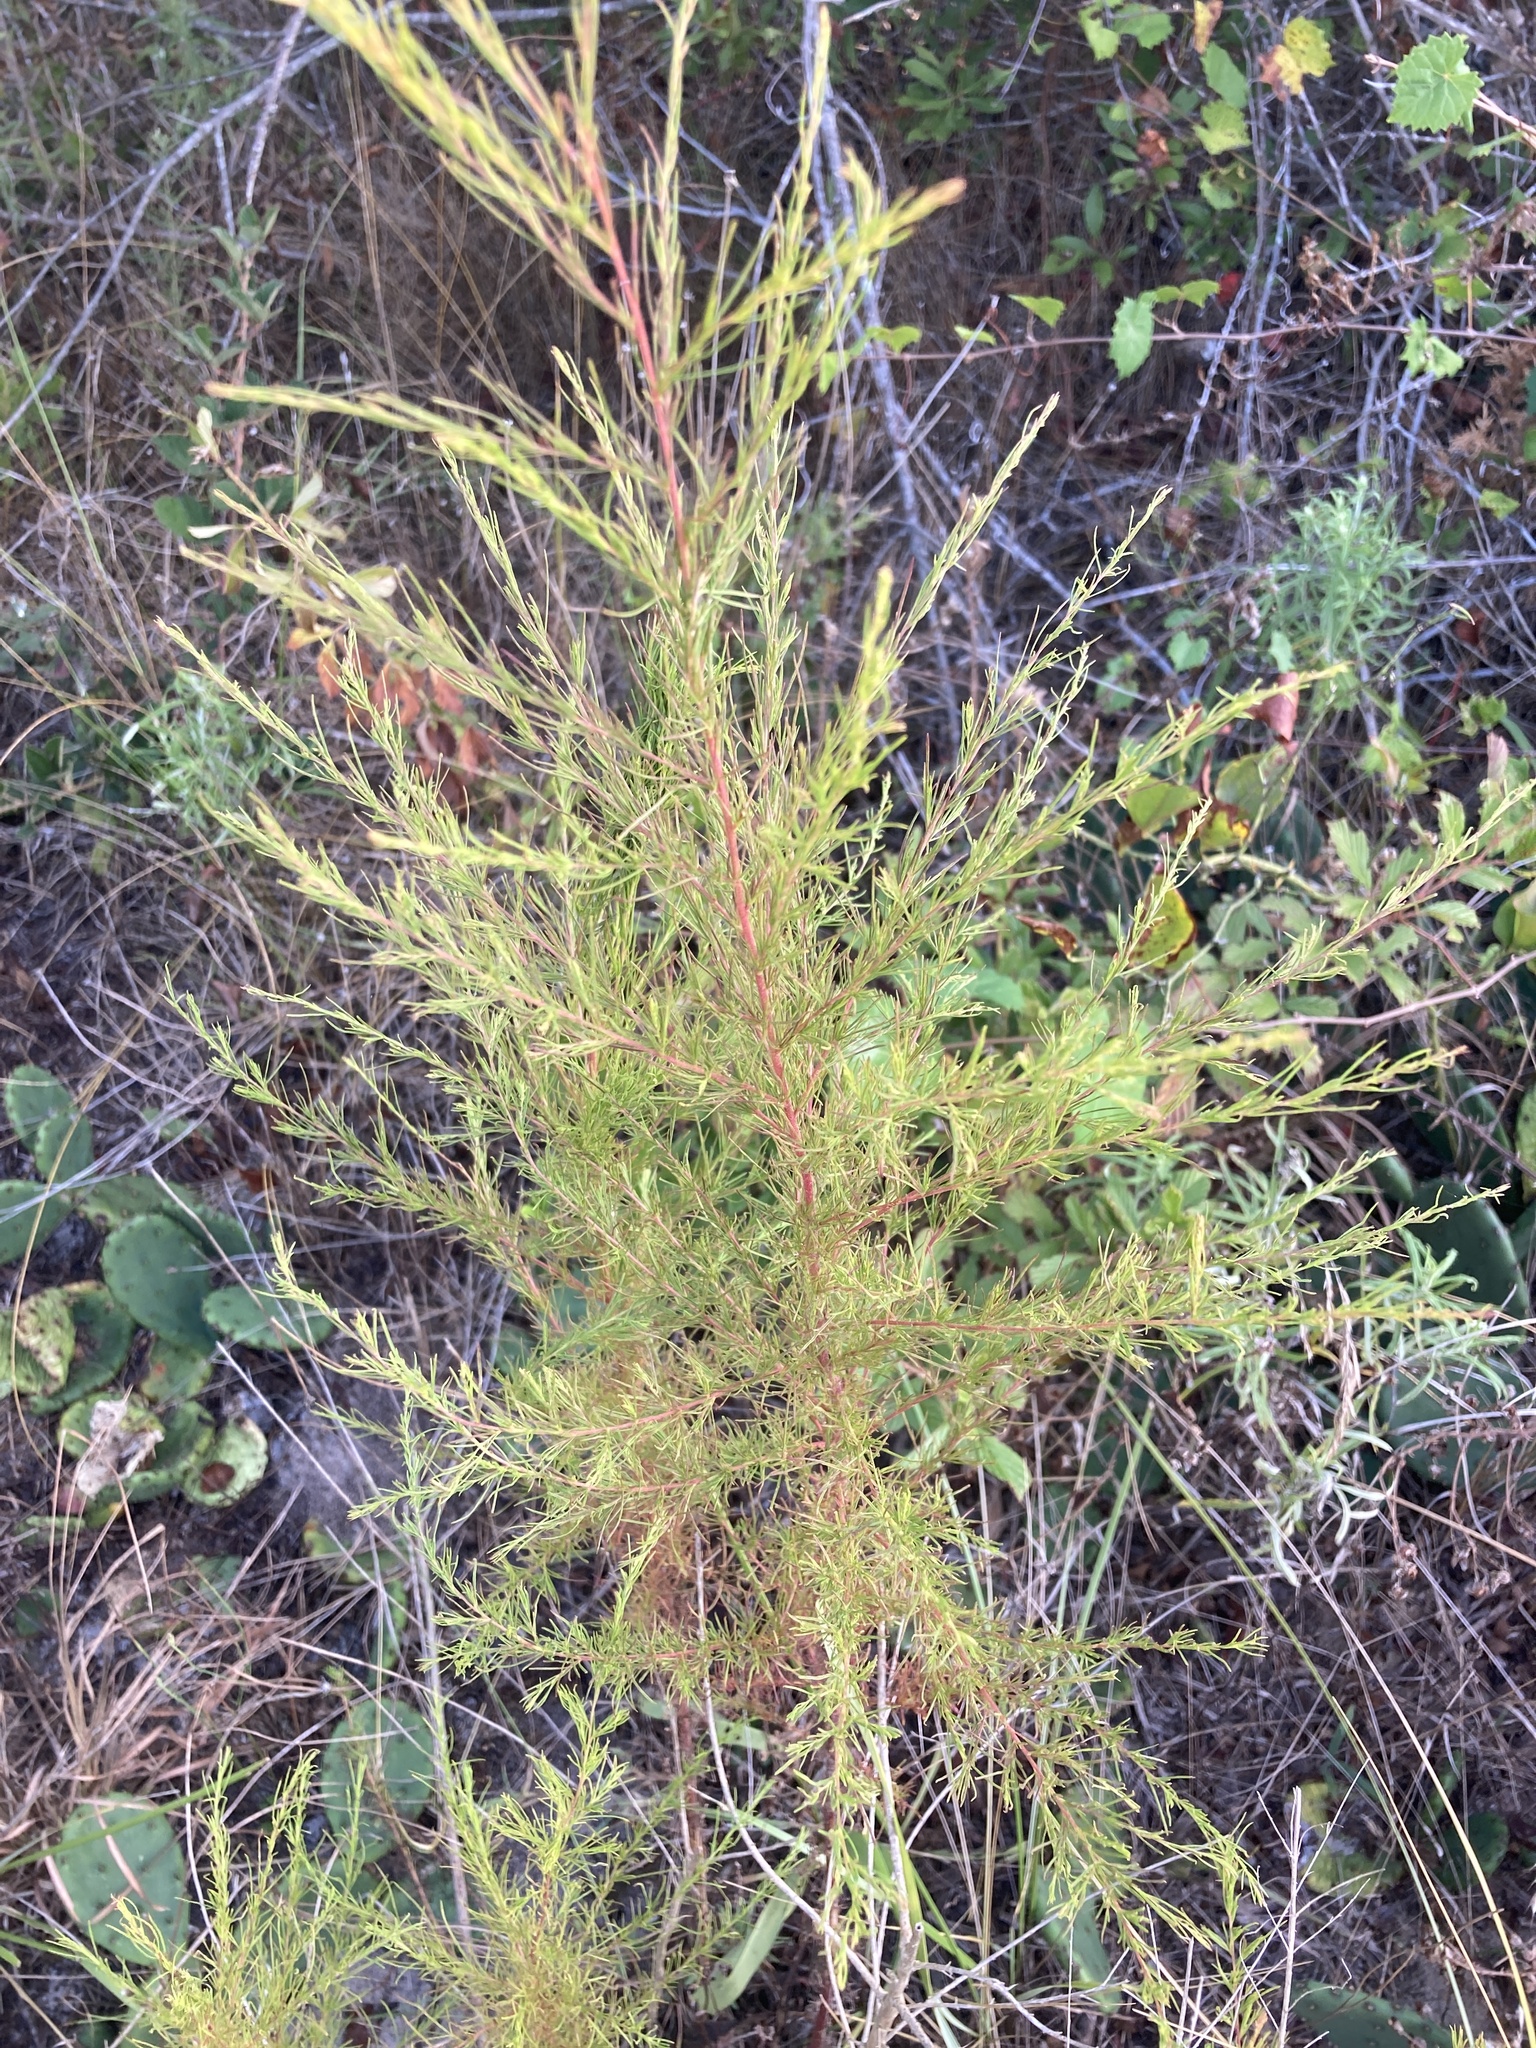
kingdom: Plantae
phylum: Tracheophyta
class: Magnoliopsida
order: Asterales
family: Asteraceae
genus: Eupatorium
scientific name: Eupatorium capillifolium
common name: Dog-fennel
